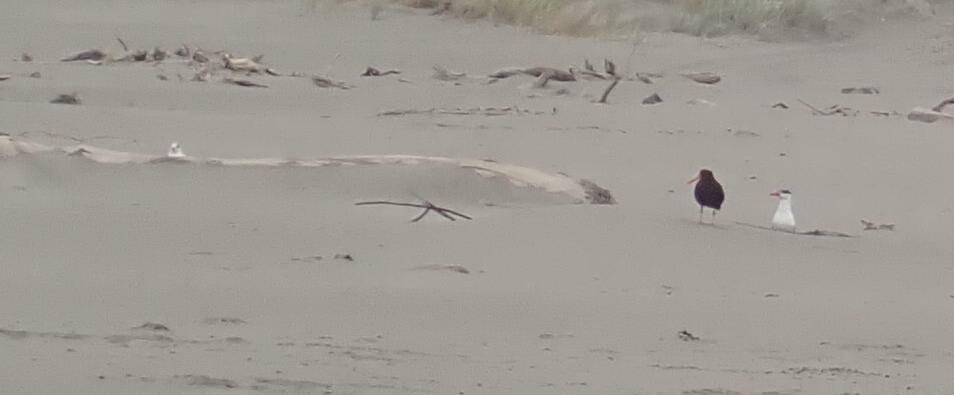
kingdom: Animalia
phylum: Chordata
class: Aves
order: Charadriiformes
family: Laridae
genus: Hydroprogne
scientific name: Hydroprogne caspia
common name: Caspian tern
